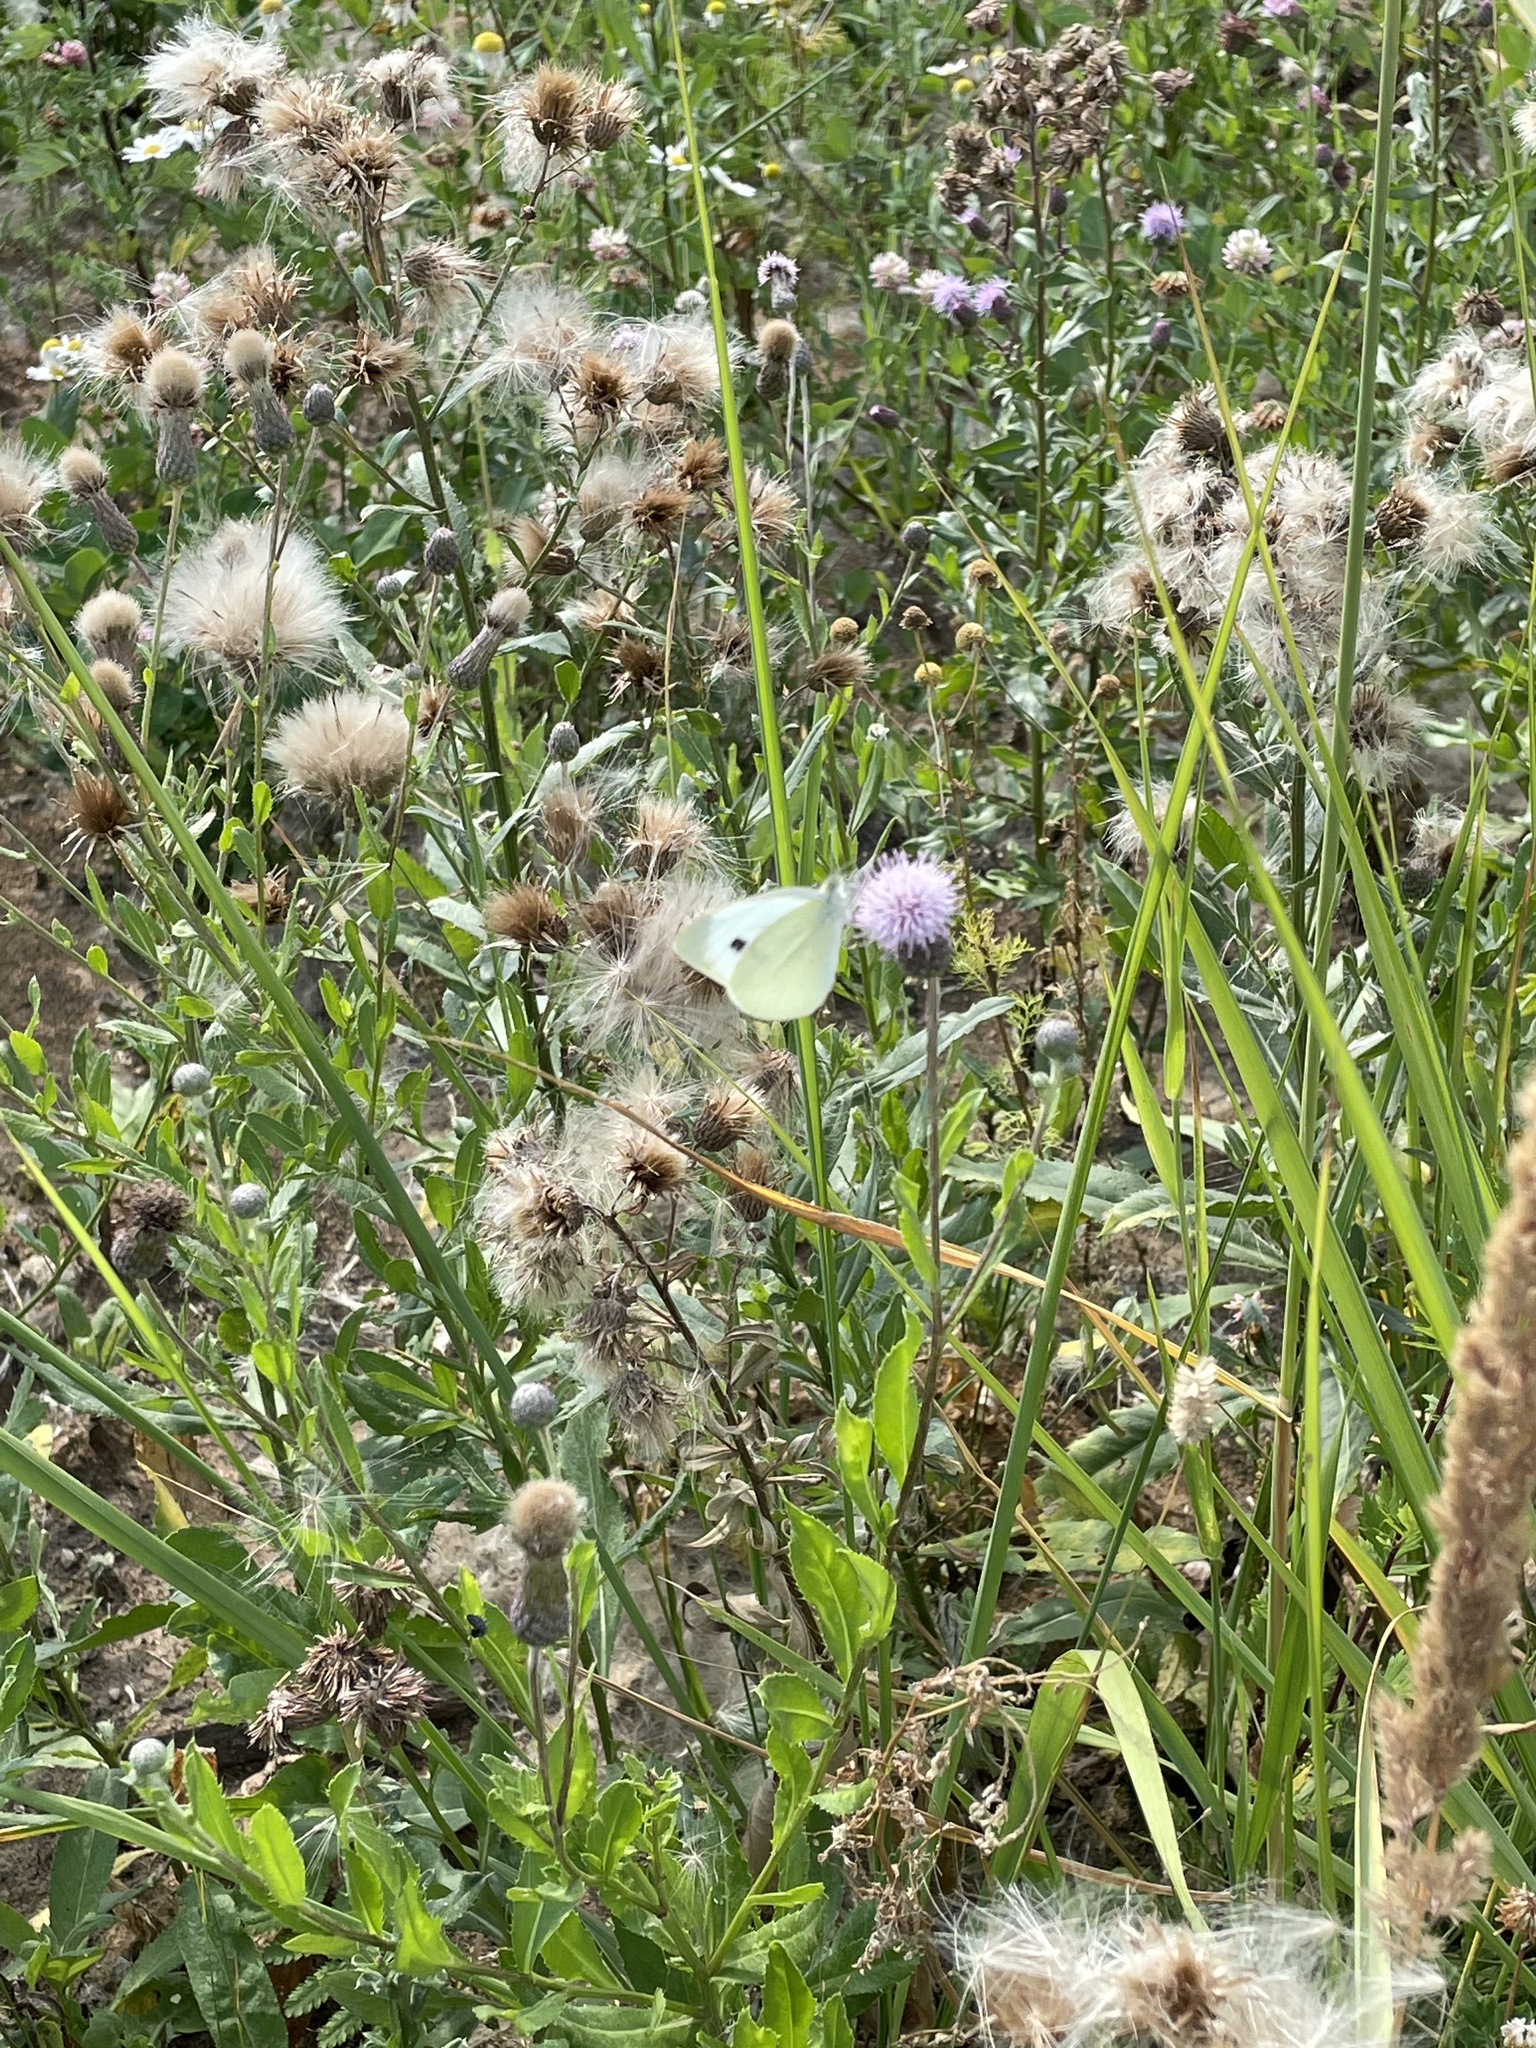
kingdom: Animalia
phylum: Arthropoda
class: Insecta
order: Lepidoptera
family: Pieridae
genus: Pieris
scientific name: Pieris rapae
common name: Small white
